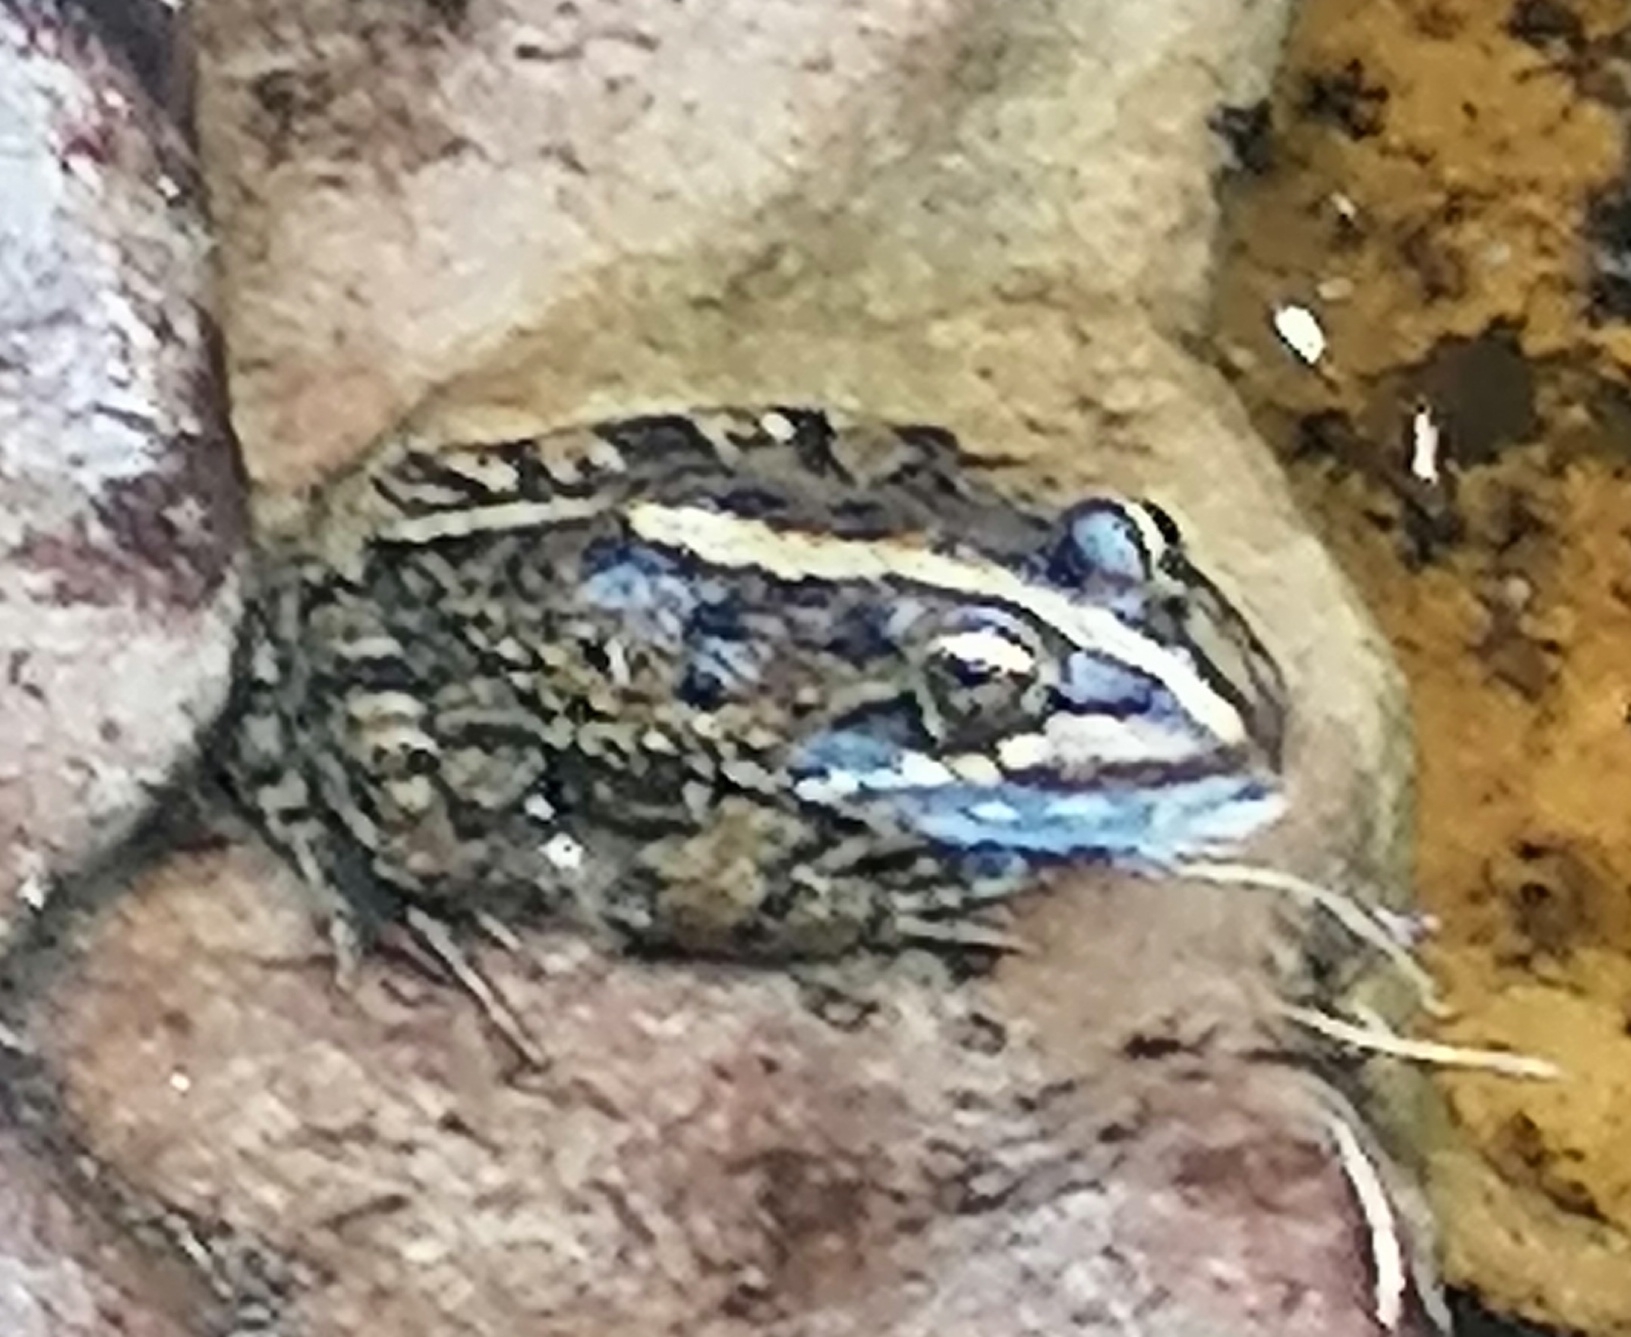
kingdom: Animalia
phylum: Chordata
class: Amphibia
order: Anura
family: Pyxicephalidae
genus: Amietia
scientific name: Amietia fuscigula
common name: Cape rana
